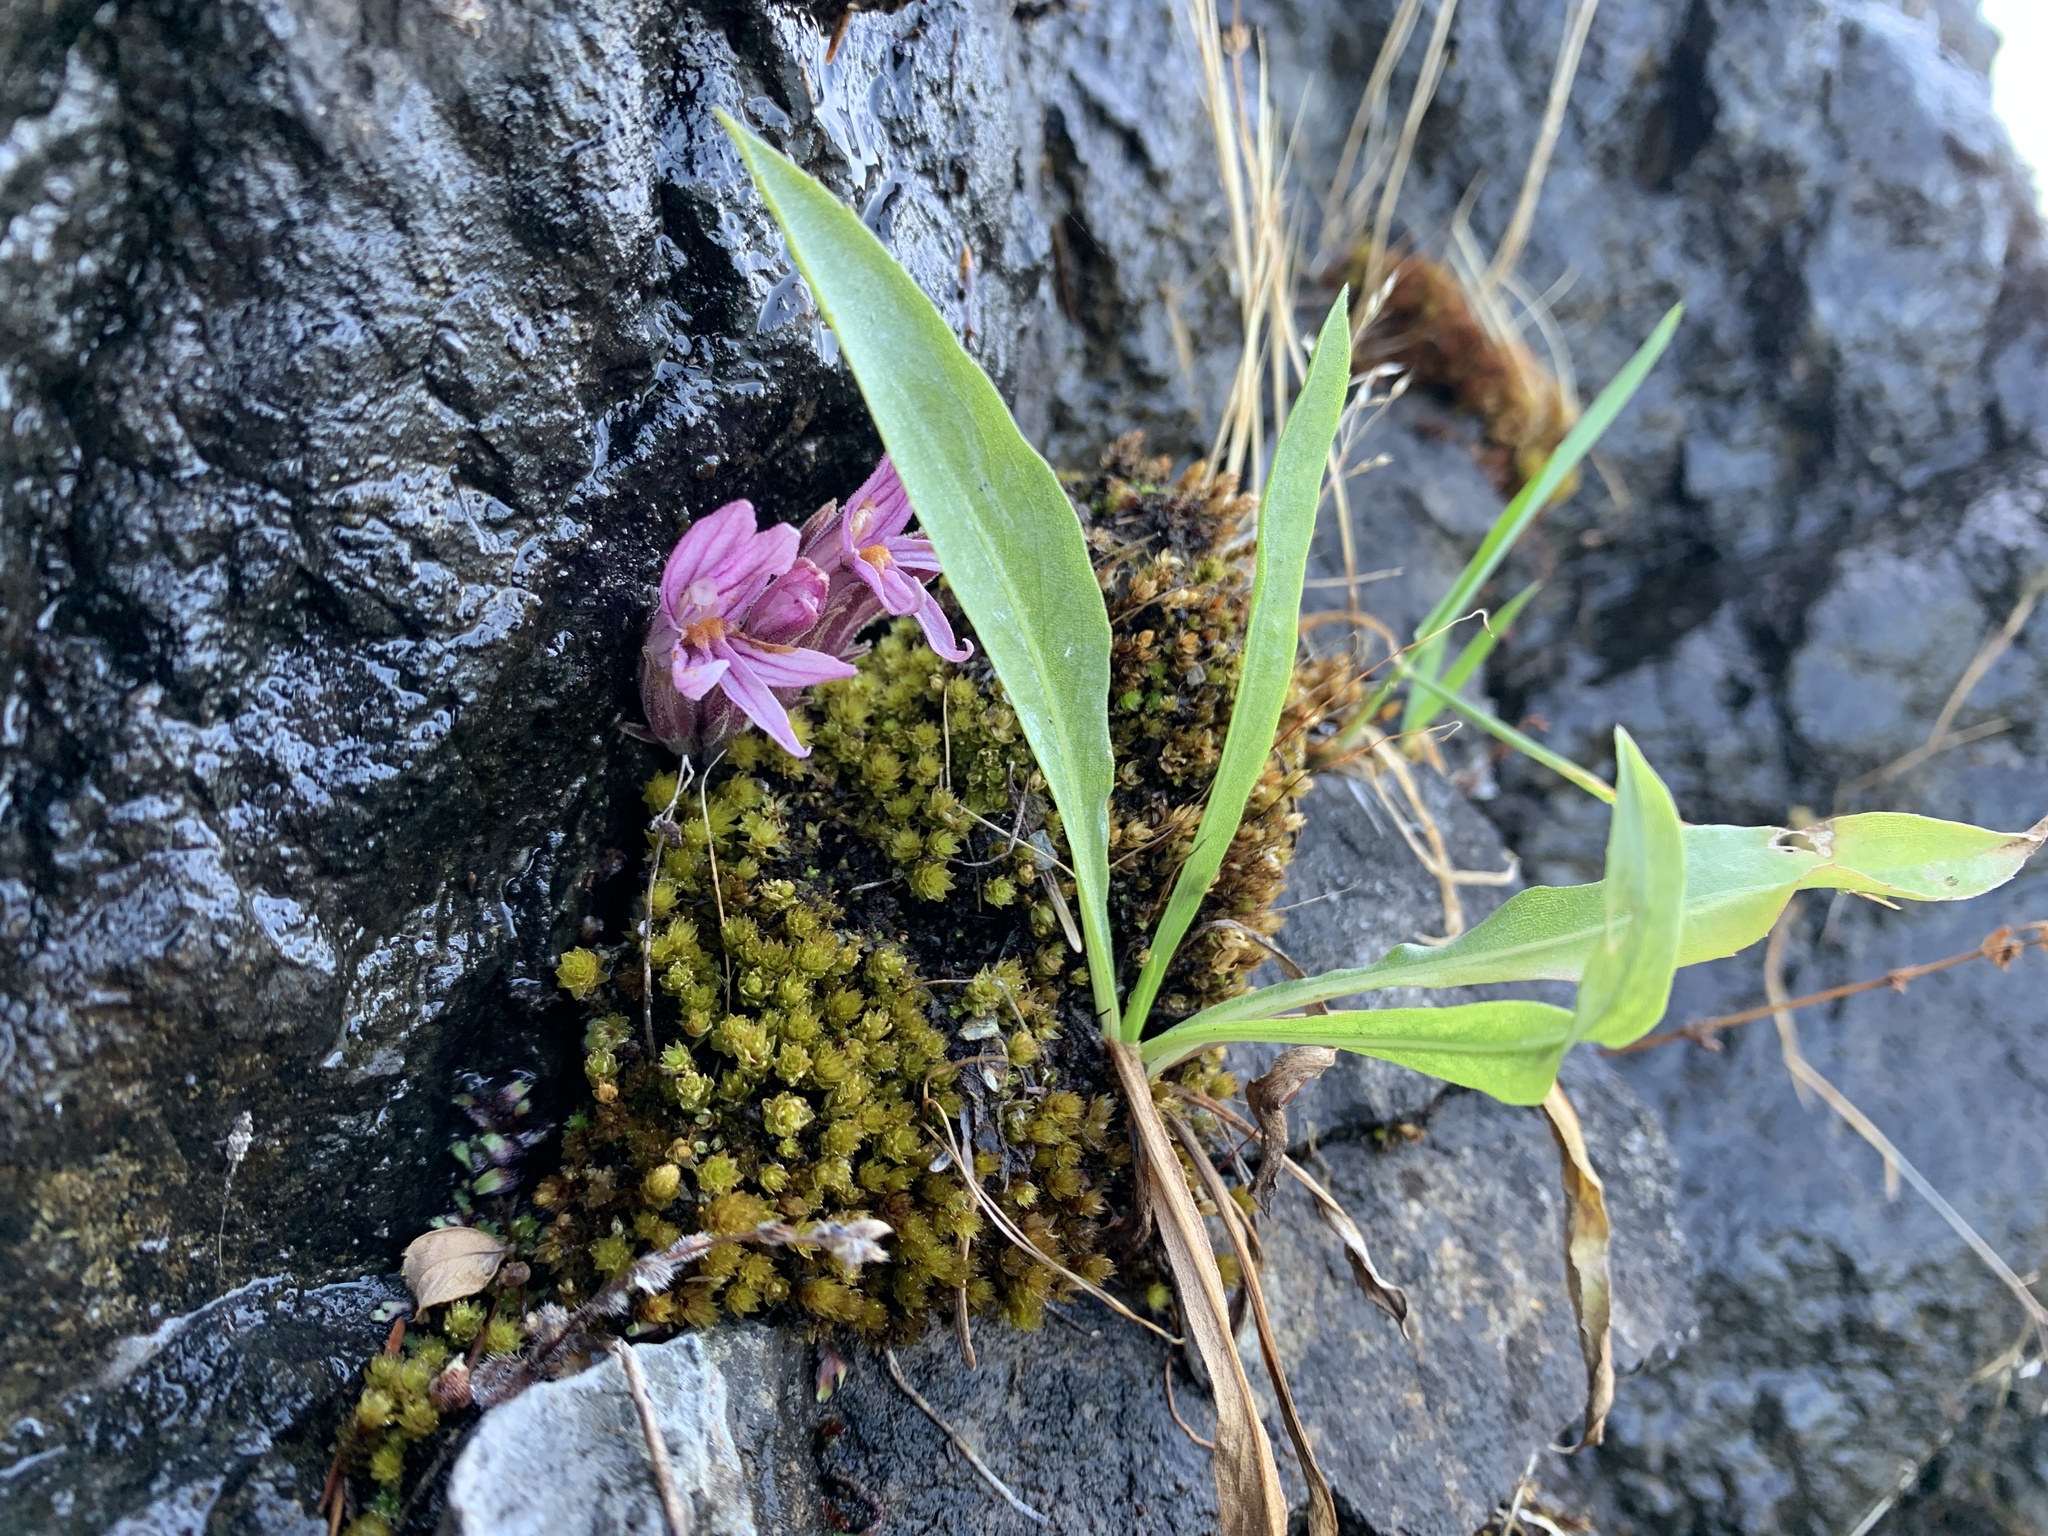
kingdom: Plantae
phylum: Tracheophyta
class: Magnoliopsida
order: Lamiales
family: Orobanchaceae
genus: Aphyllon
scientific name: Aphyllon californicum
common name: California broomrape
